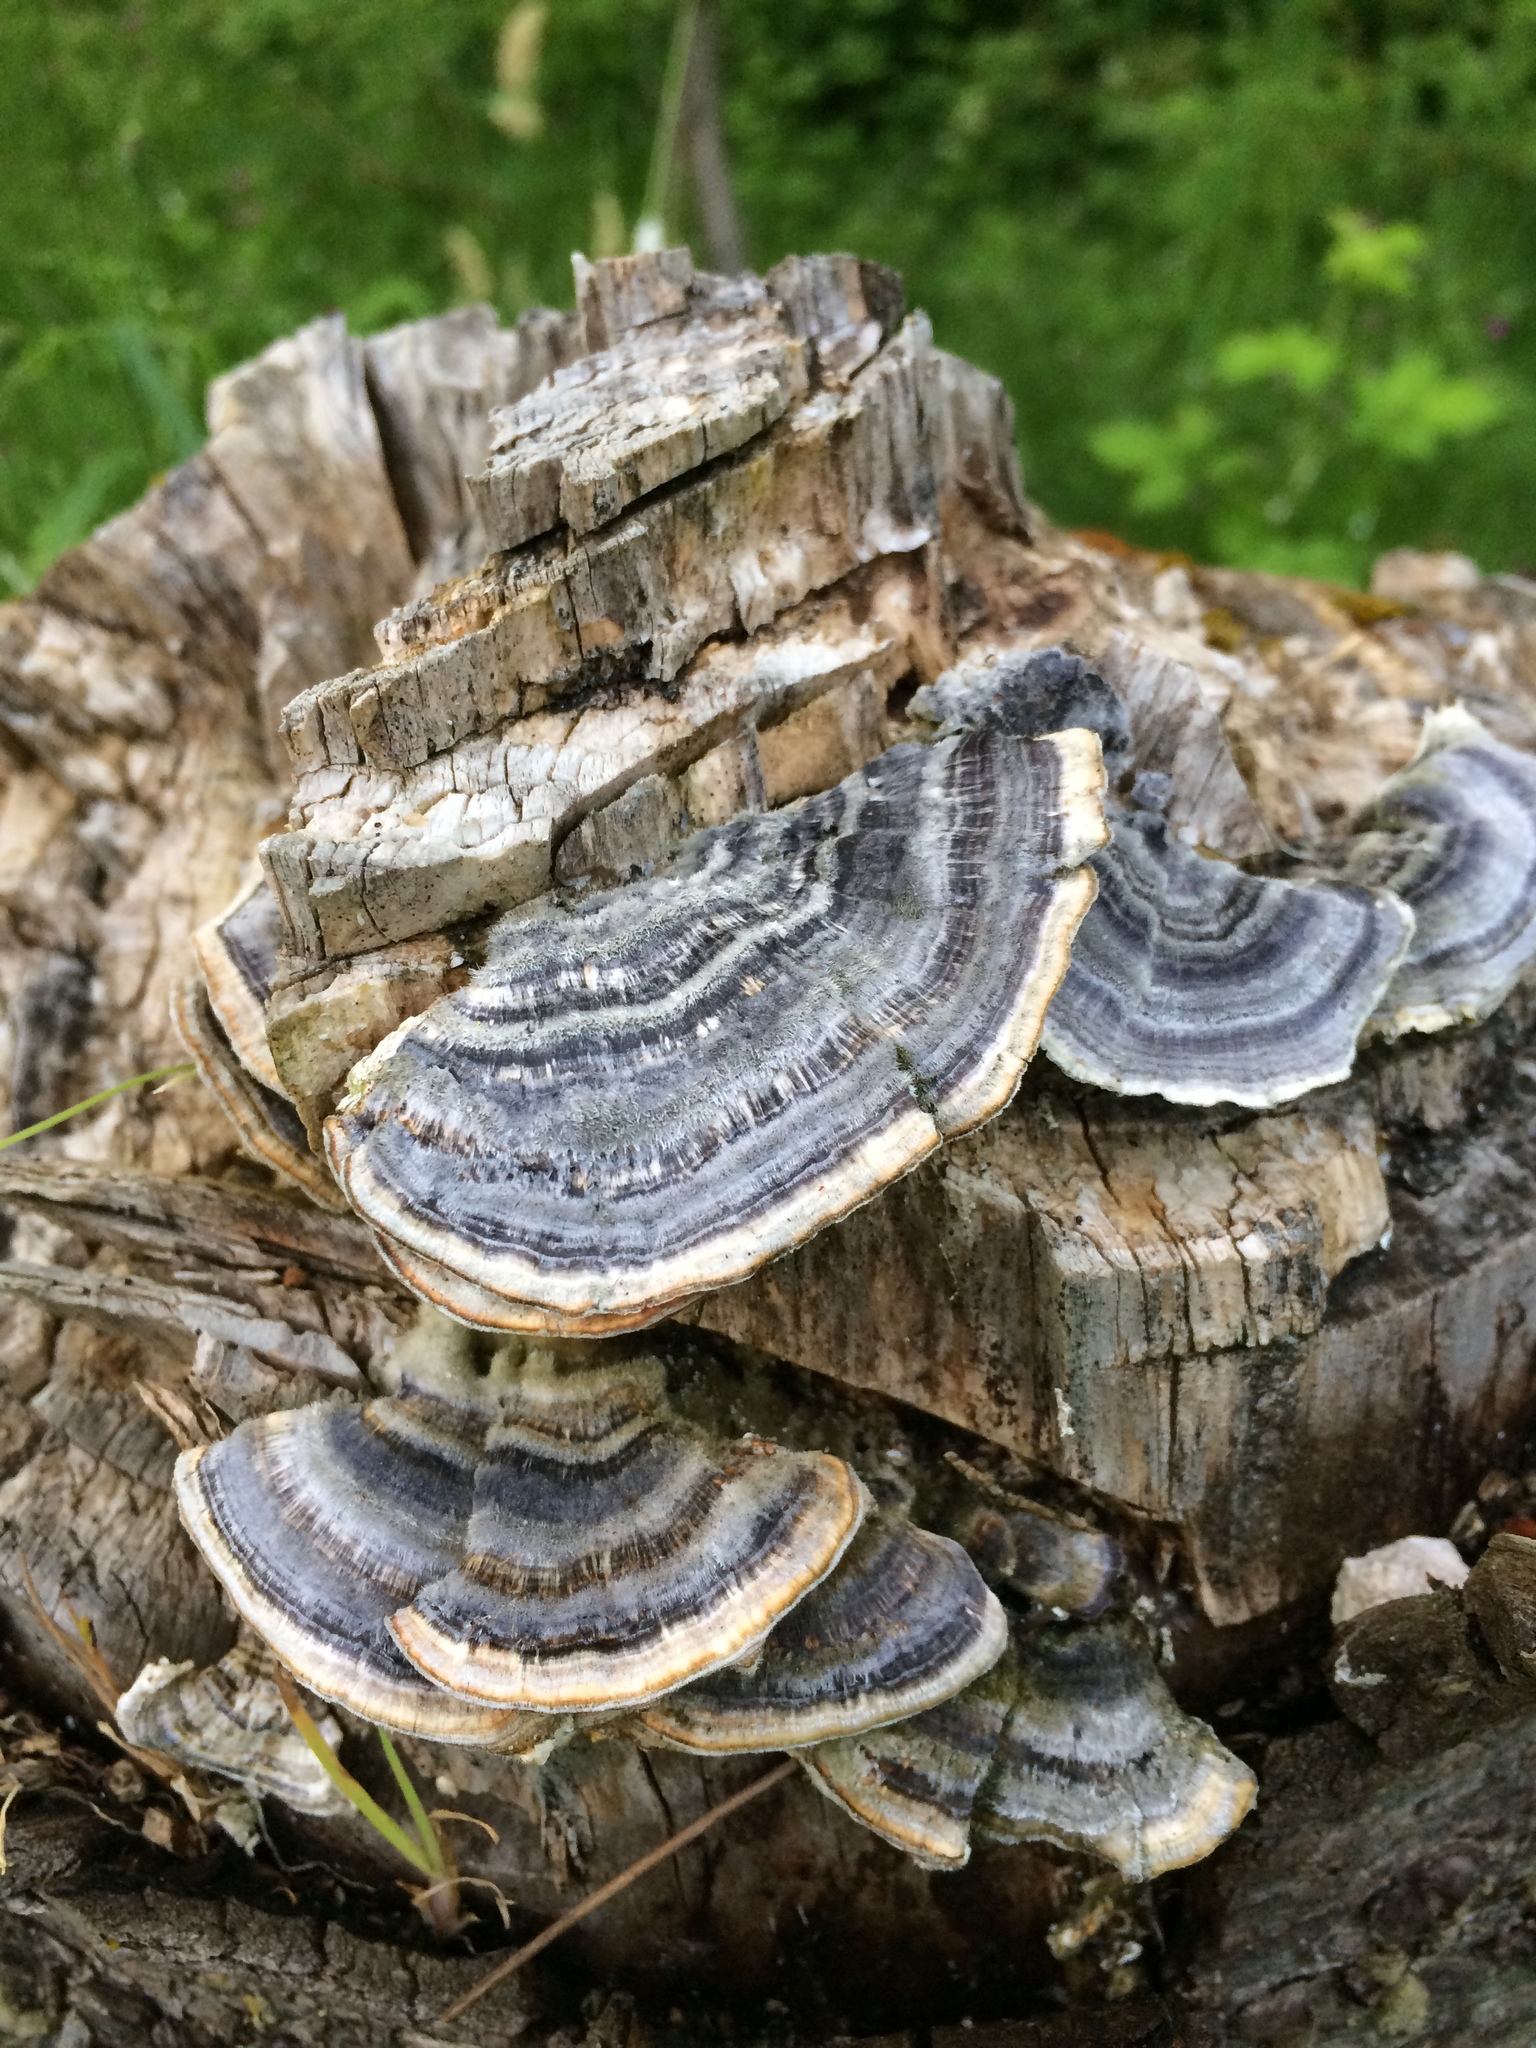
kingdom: Fungi
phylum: Basidiomycota
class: Agaricomycetes
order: Polyporales
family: Polyporaceae
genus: Trametes
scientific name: Trametes versicolor
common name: Turkeytail
